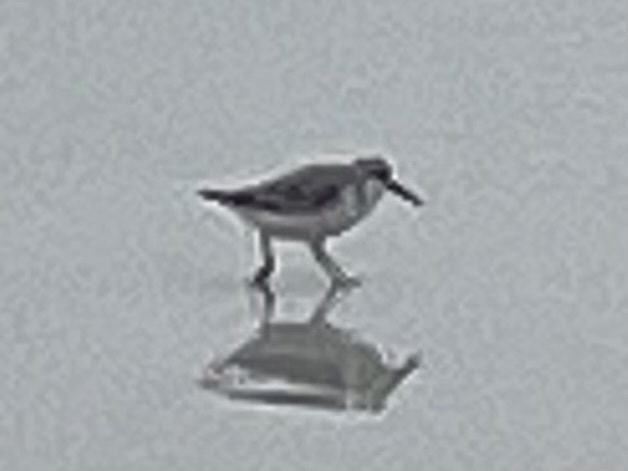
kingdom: Animalia
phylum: Chordata
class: Aves
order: Charadriiformes
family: Scolopacidae
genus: Calidris
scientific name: Calidris alba
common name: Sanderling
